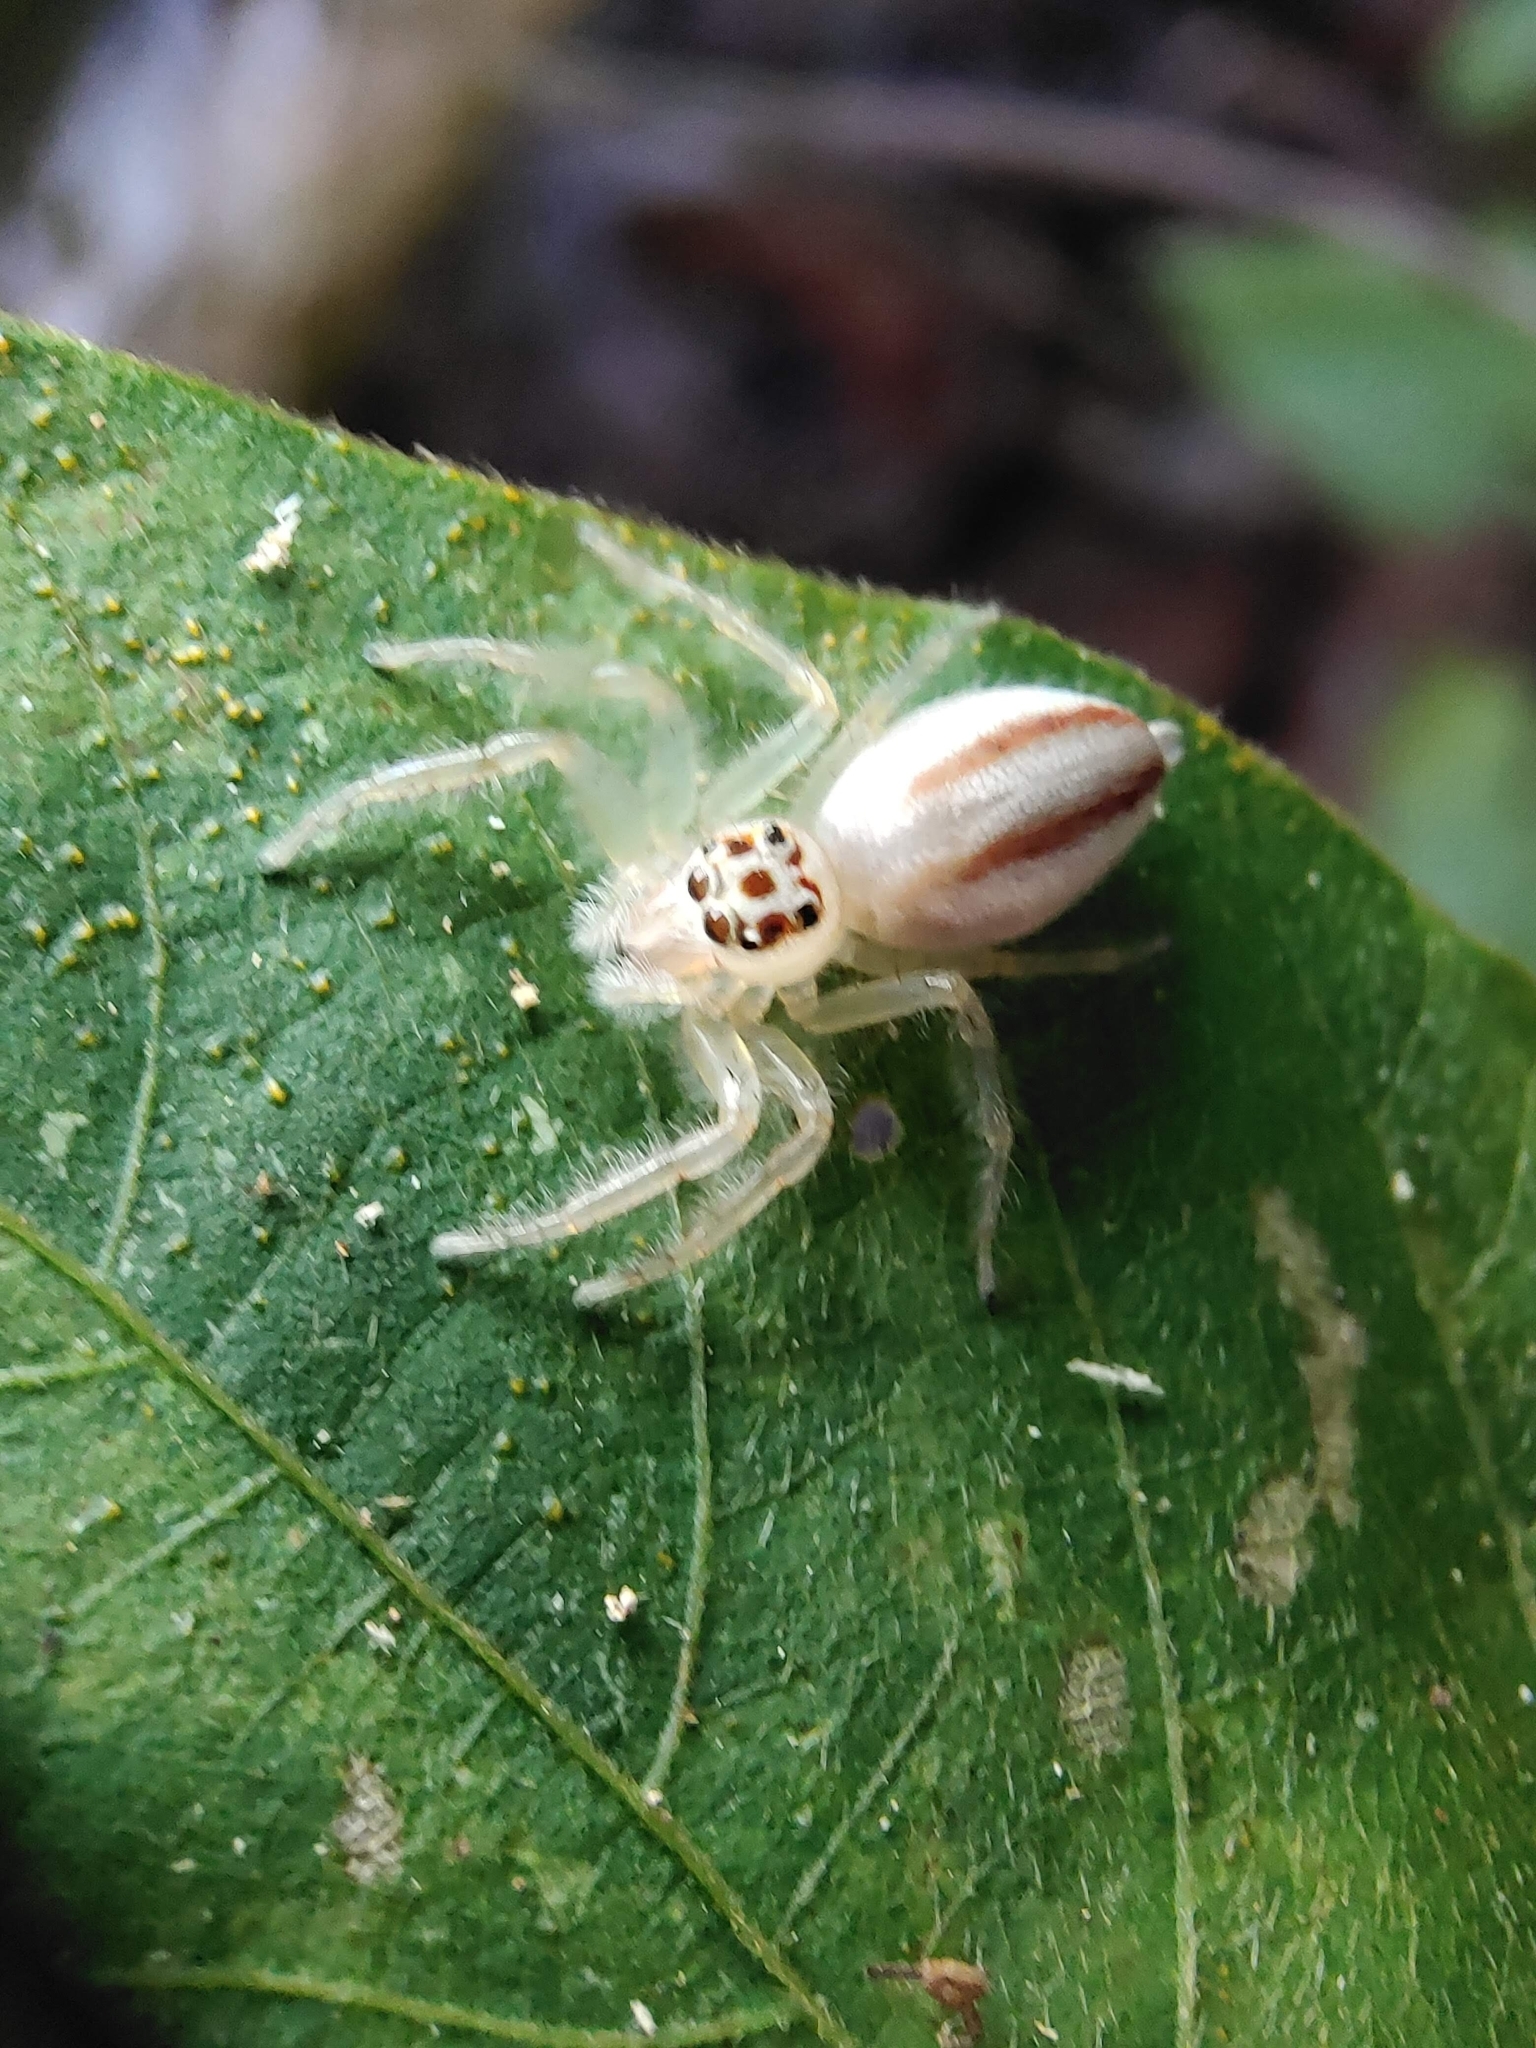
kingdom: Animalia
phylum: Arthropoda
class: Arachnida
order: Araneae
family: Salticidae
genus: Telamonia
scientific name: Telamonia dimidiata
